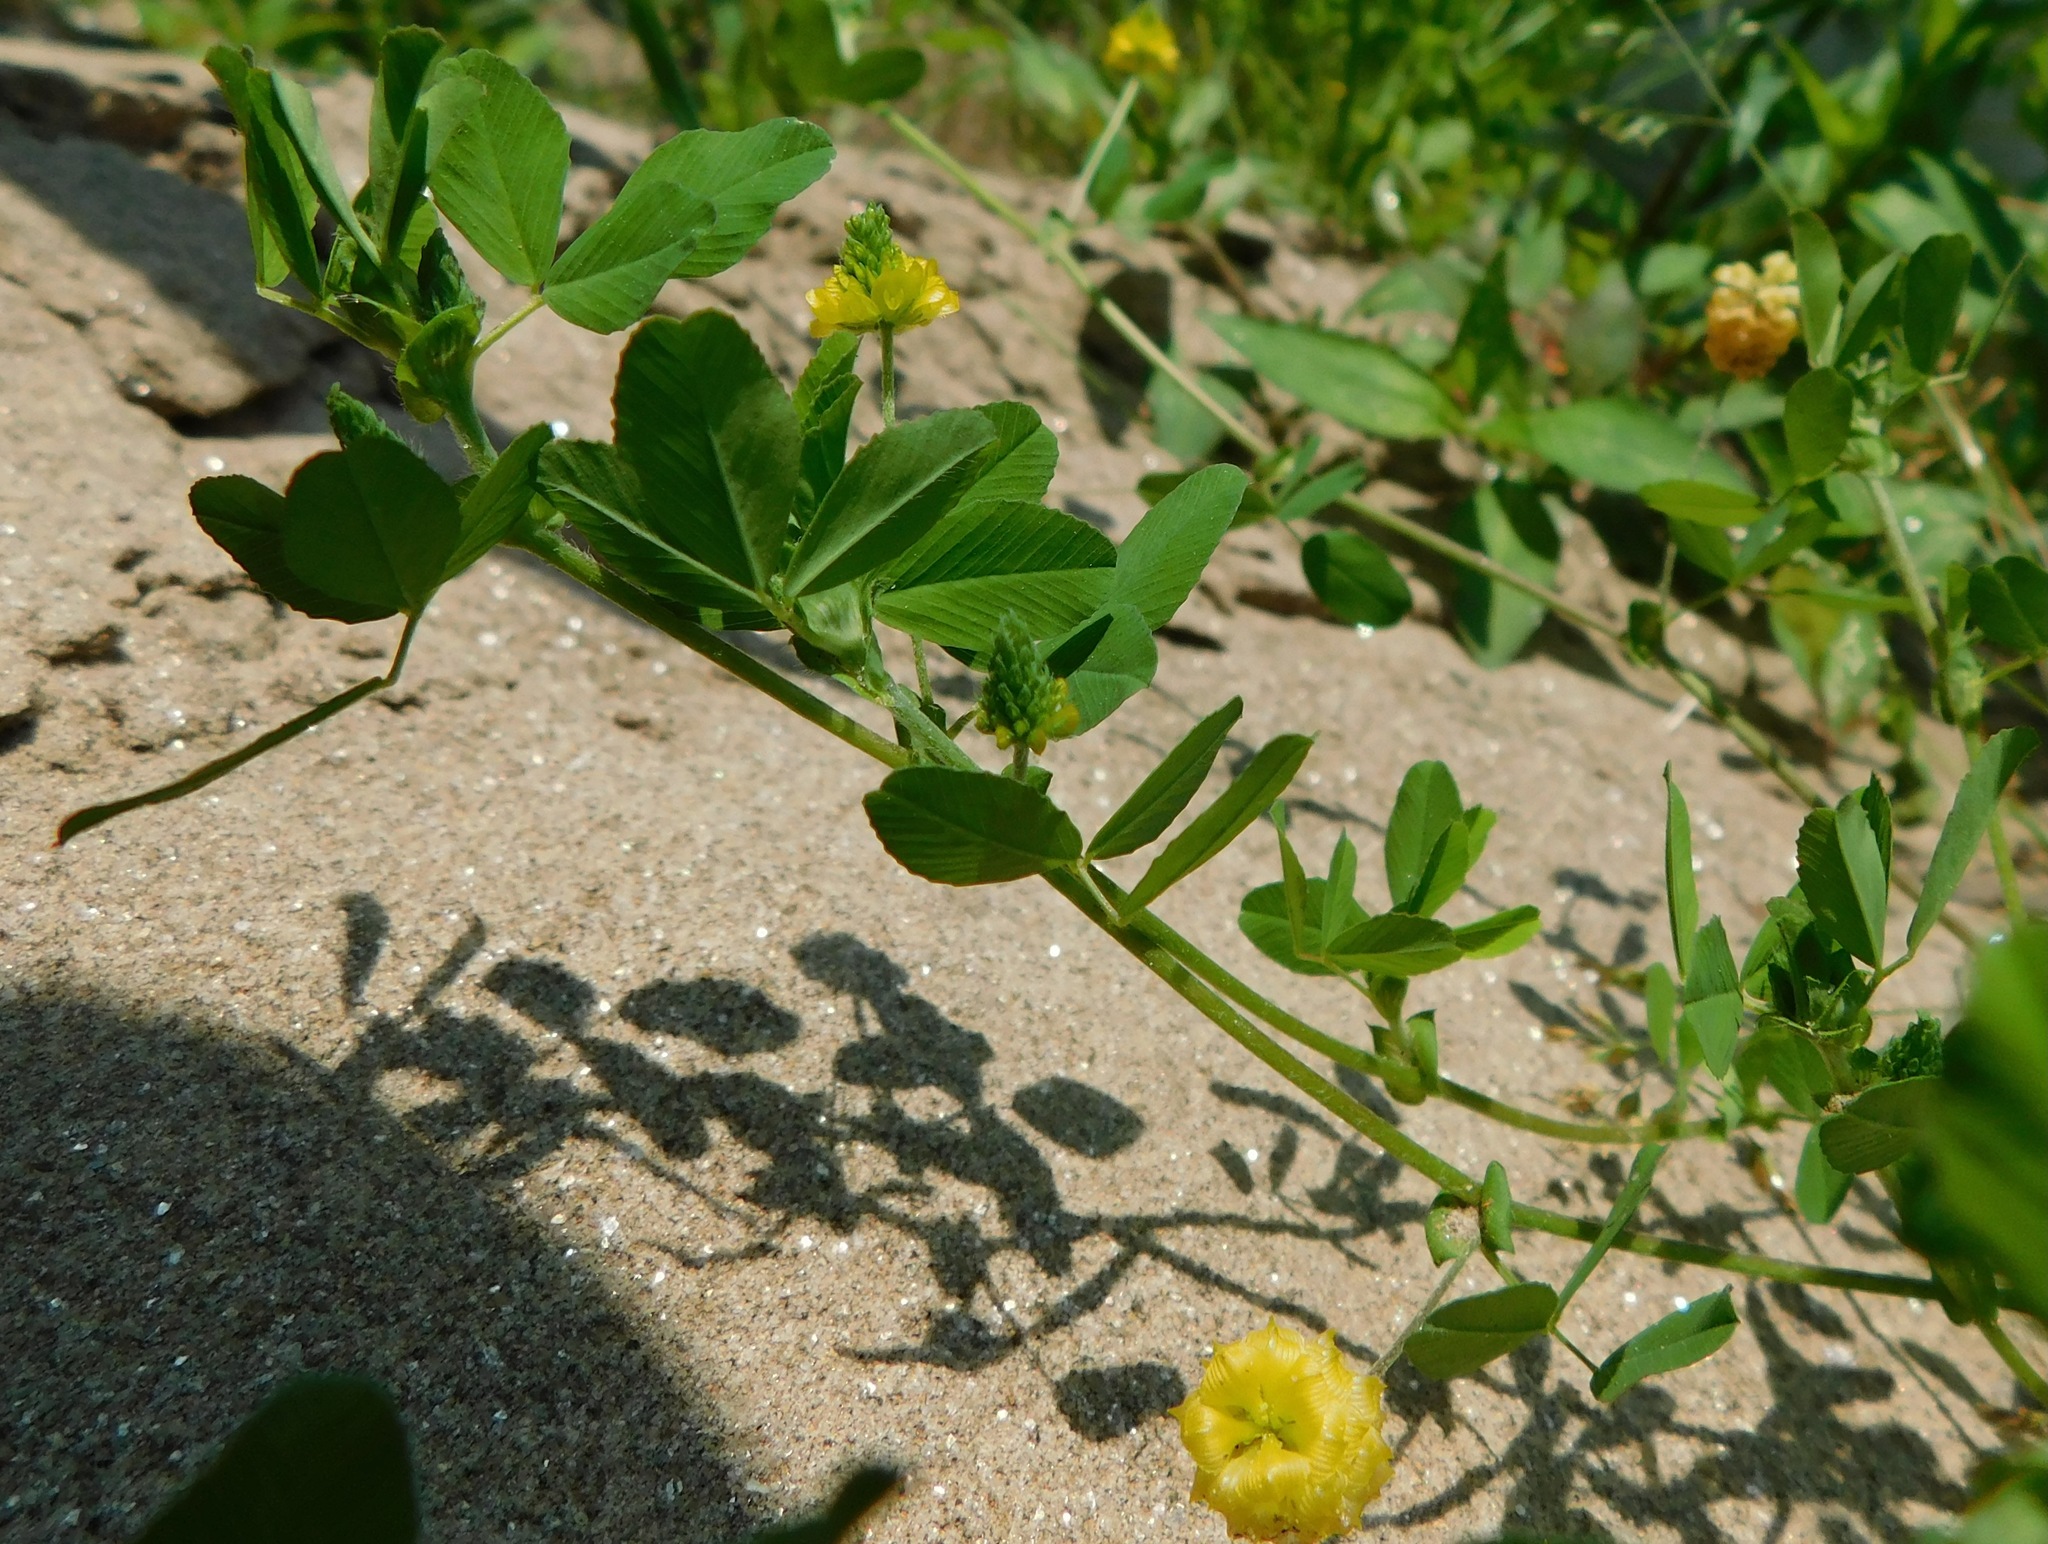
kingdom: Plantae
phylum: Tracheophyta
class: Magnoliopsida
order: Fabales
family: Fabaceae
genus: Trifolium
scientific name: Trifolium campestre
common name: Field clover
